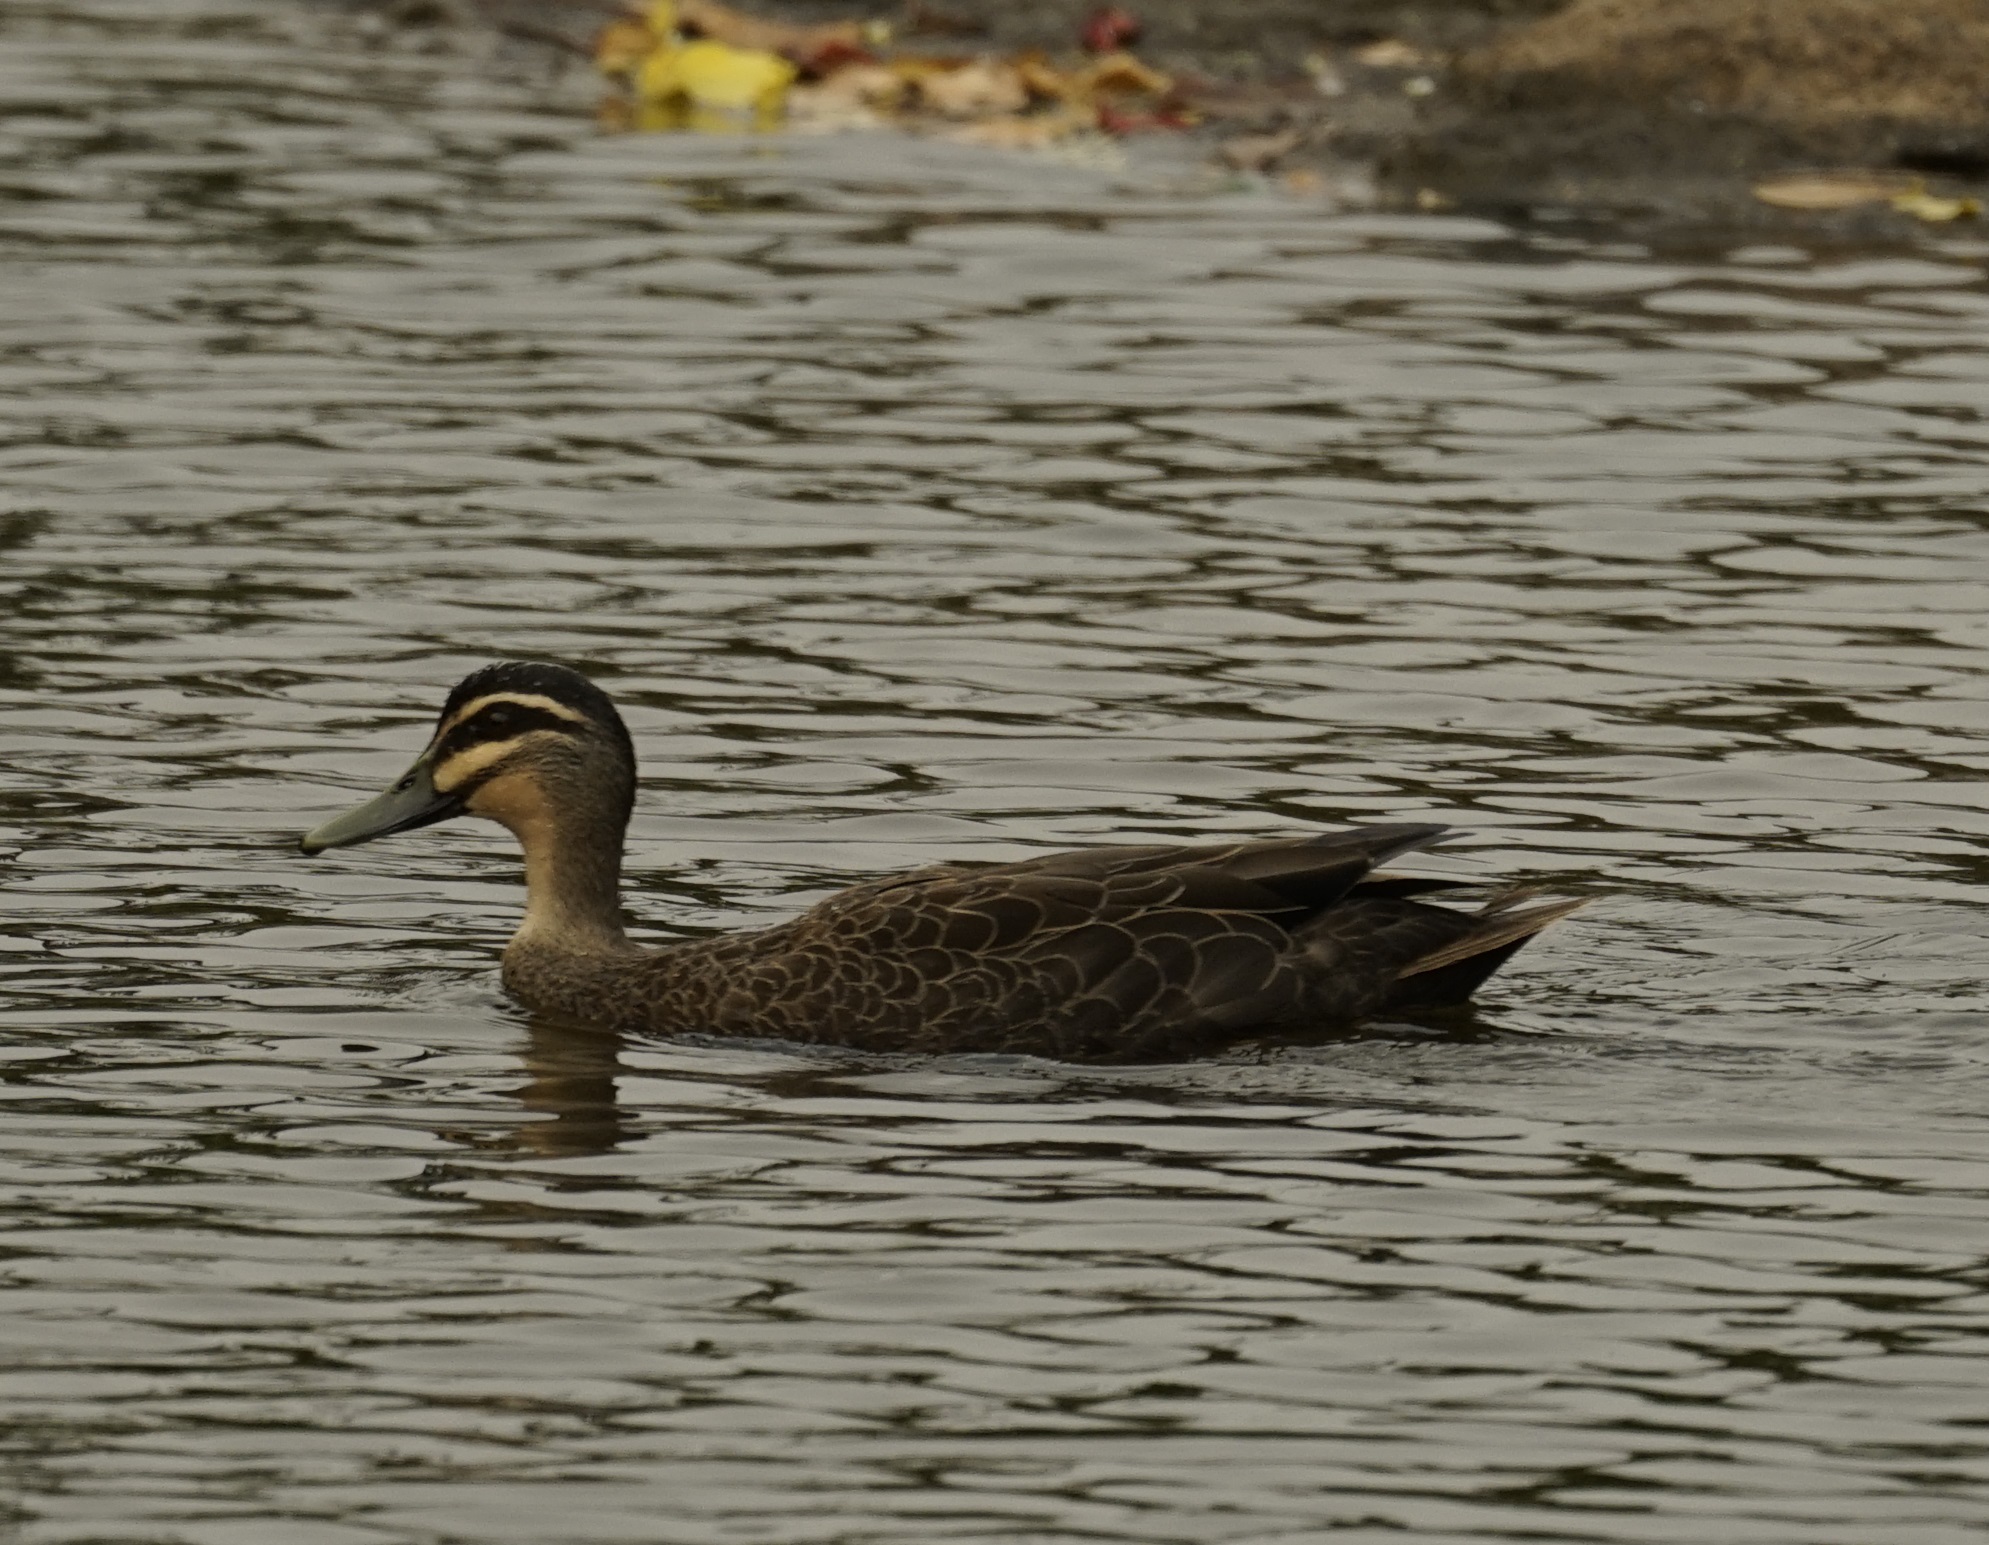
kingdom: Animalia
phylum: Chordata
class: Aves
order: Anseriformes
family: Anatidae
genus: Anas
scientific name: Anas superciliosa
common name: Pacific black duck
